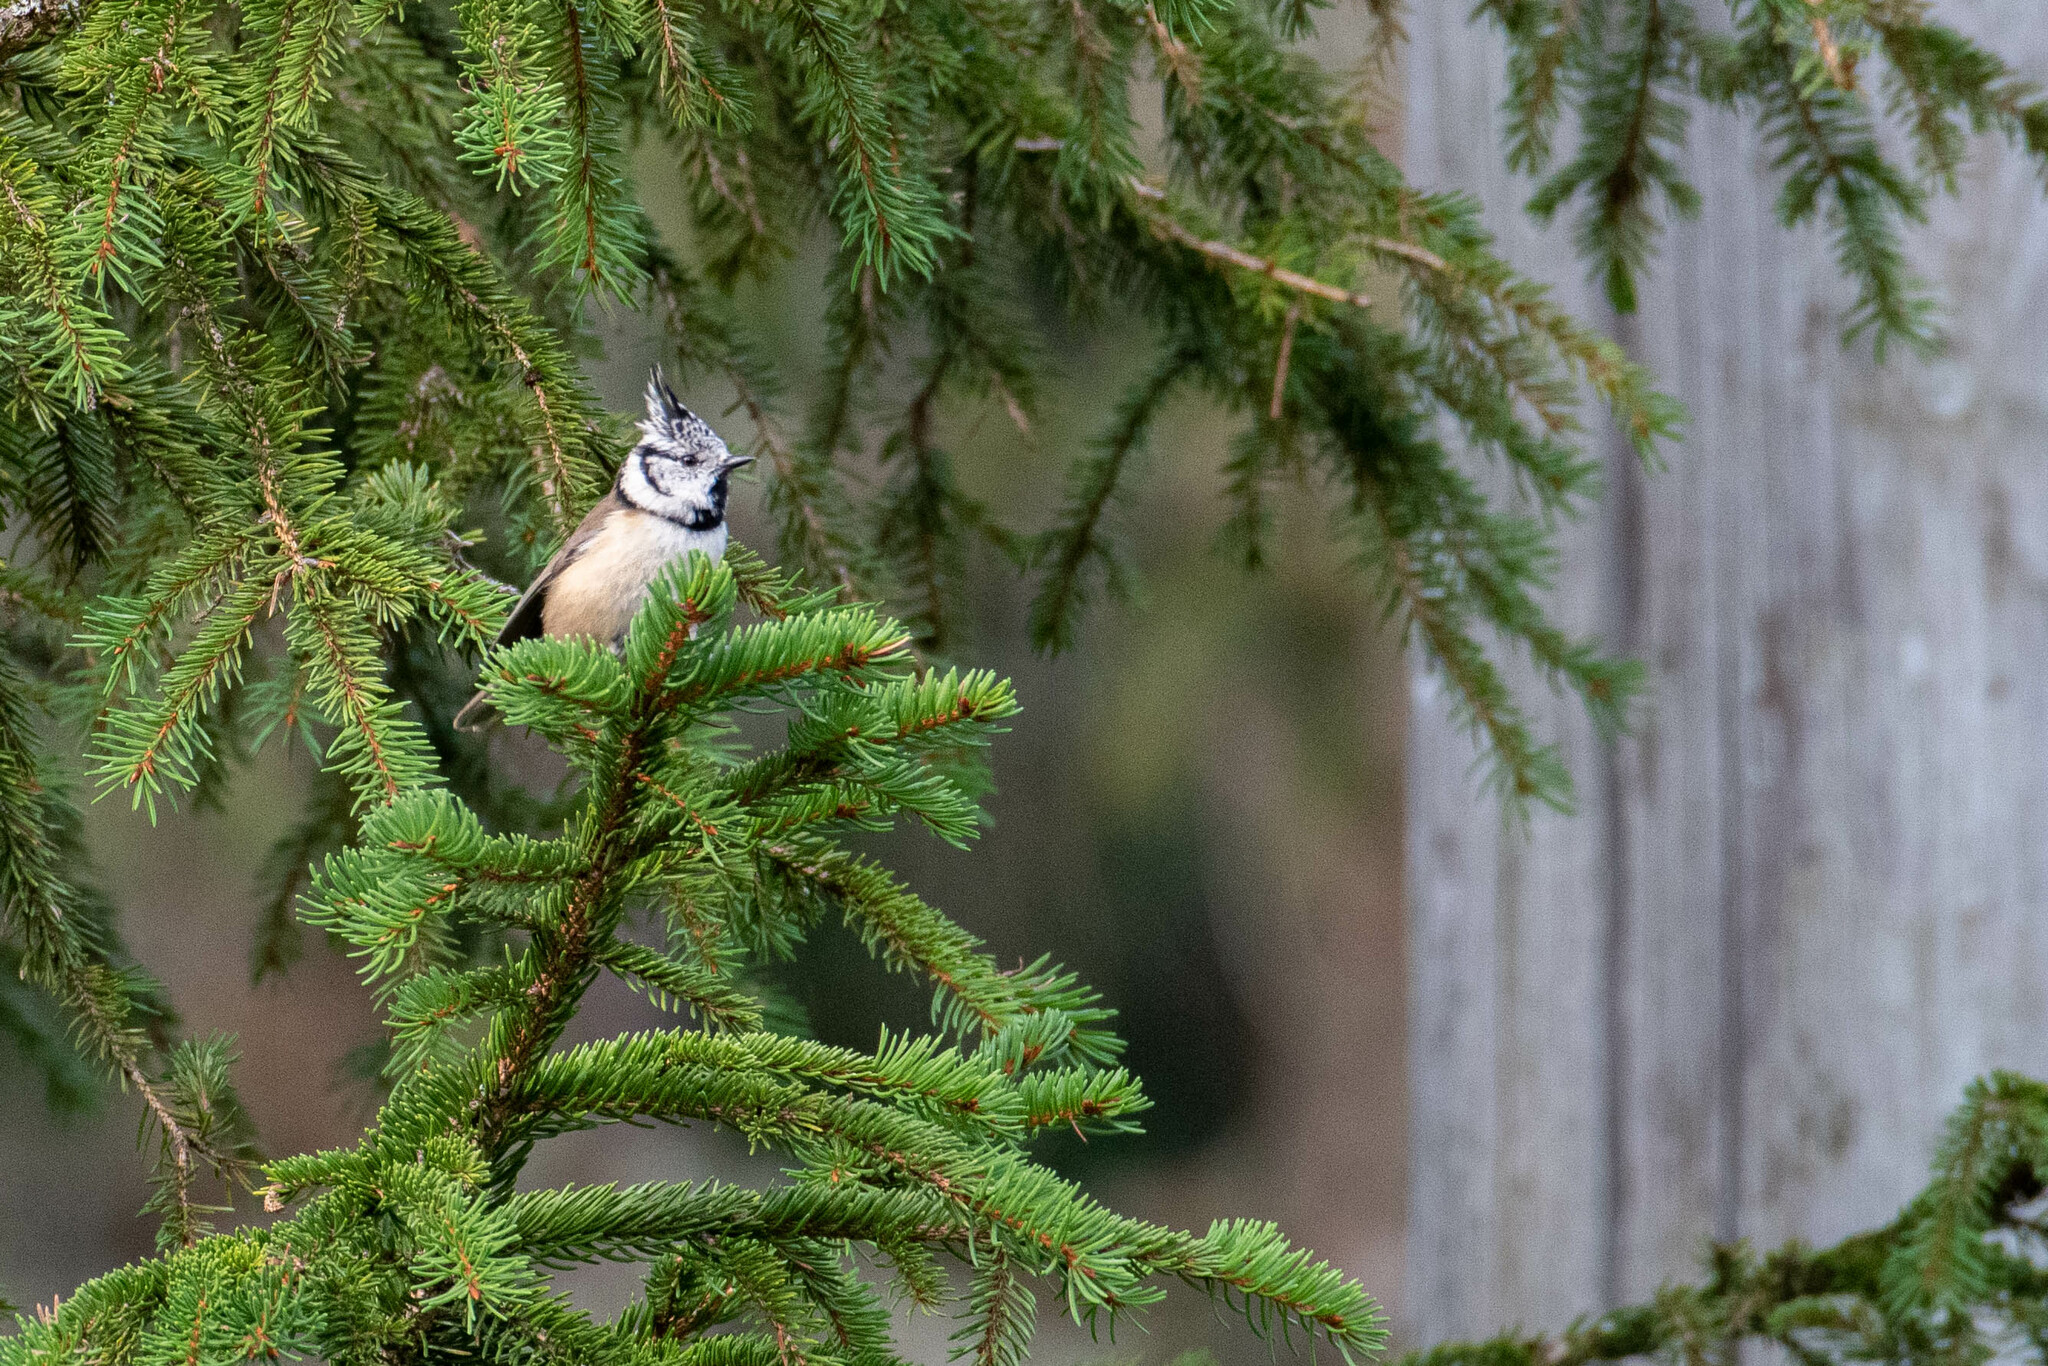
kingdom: Animalia
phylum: Chordata
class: Aves
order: Passeriformes
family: Paridae
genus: Lophophanes
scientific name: Lophophanes cristatus
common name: European crested tit
